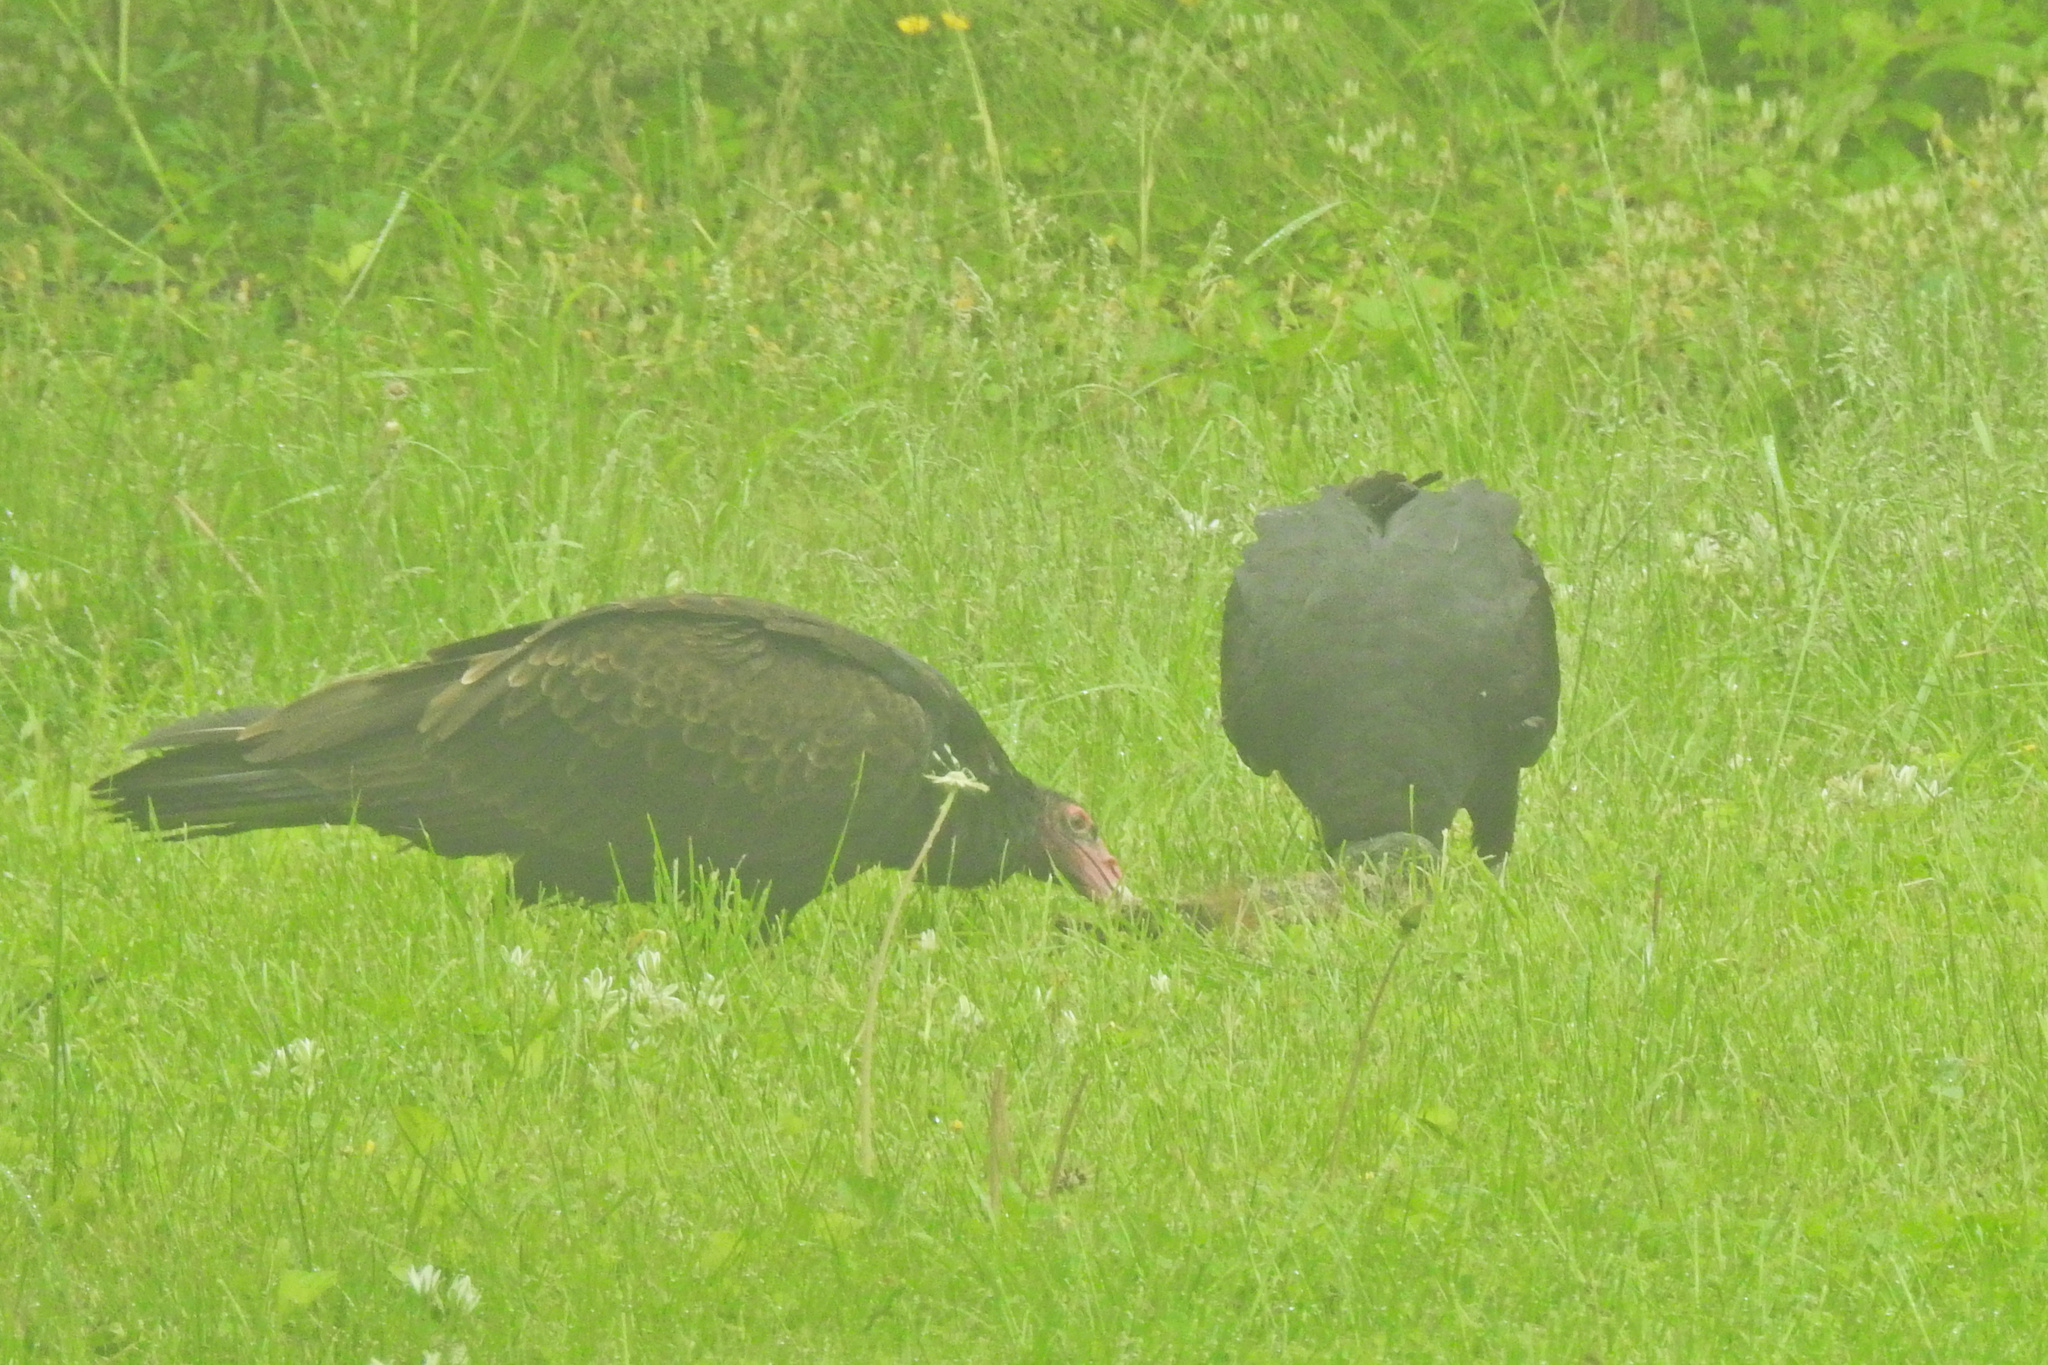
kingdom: Animalia
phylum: Chordata
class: Aves
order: Accipitriformes
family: Cathartidae
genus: Coragyps
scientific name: Coragyps atratus
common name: Black vulture
